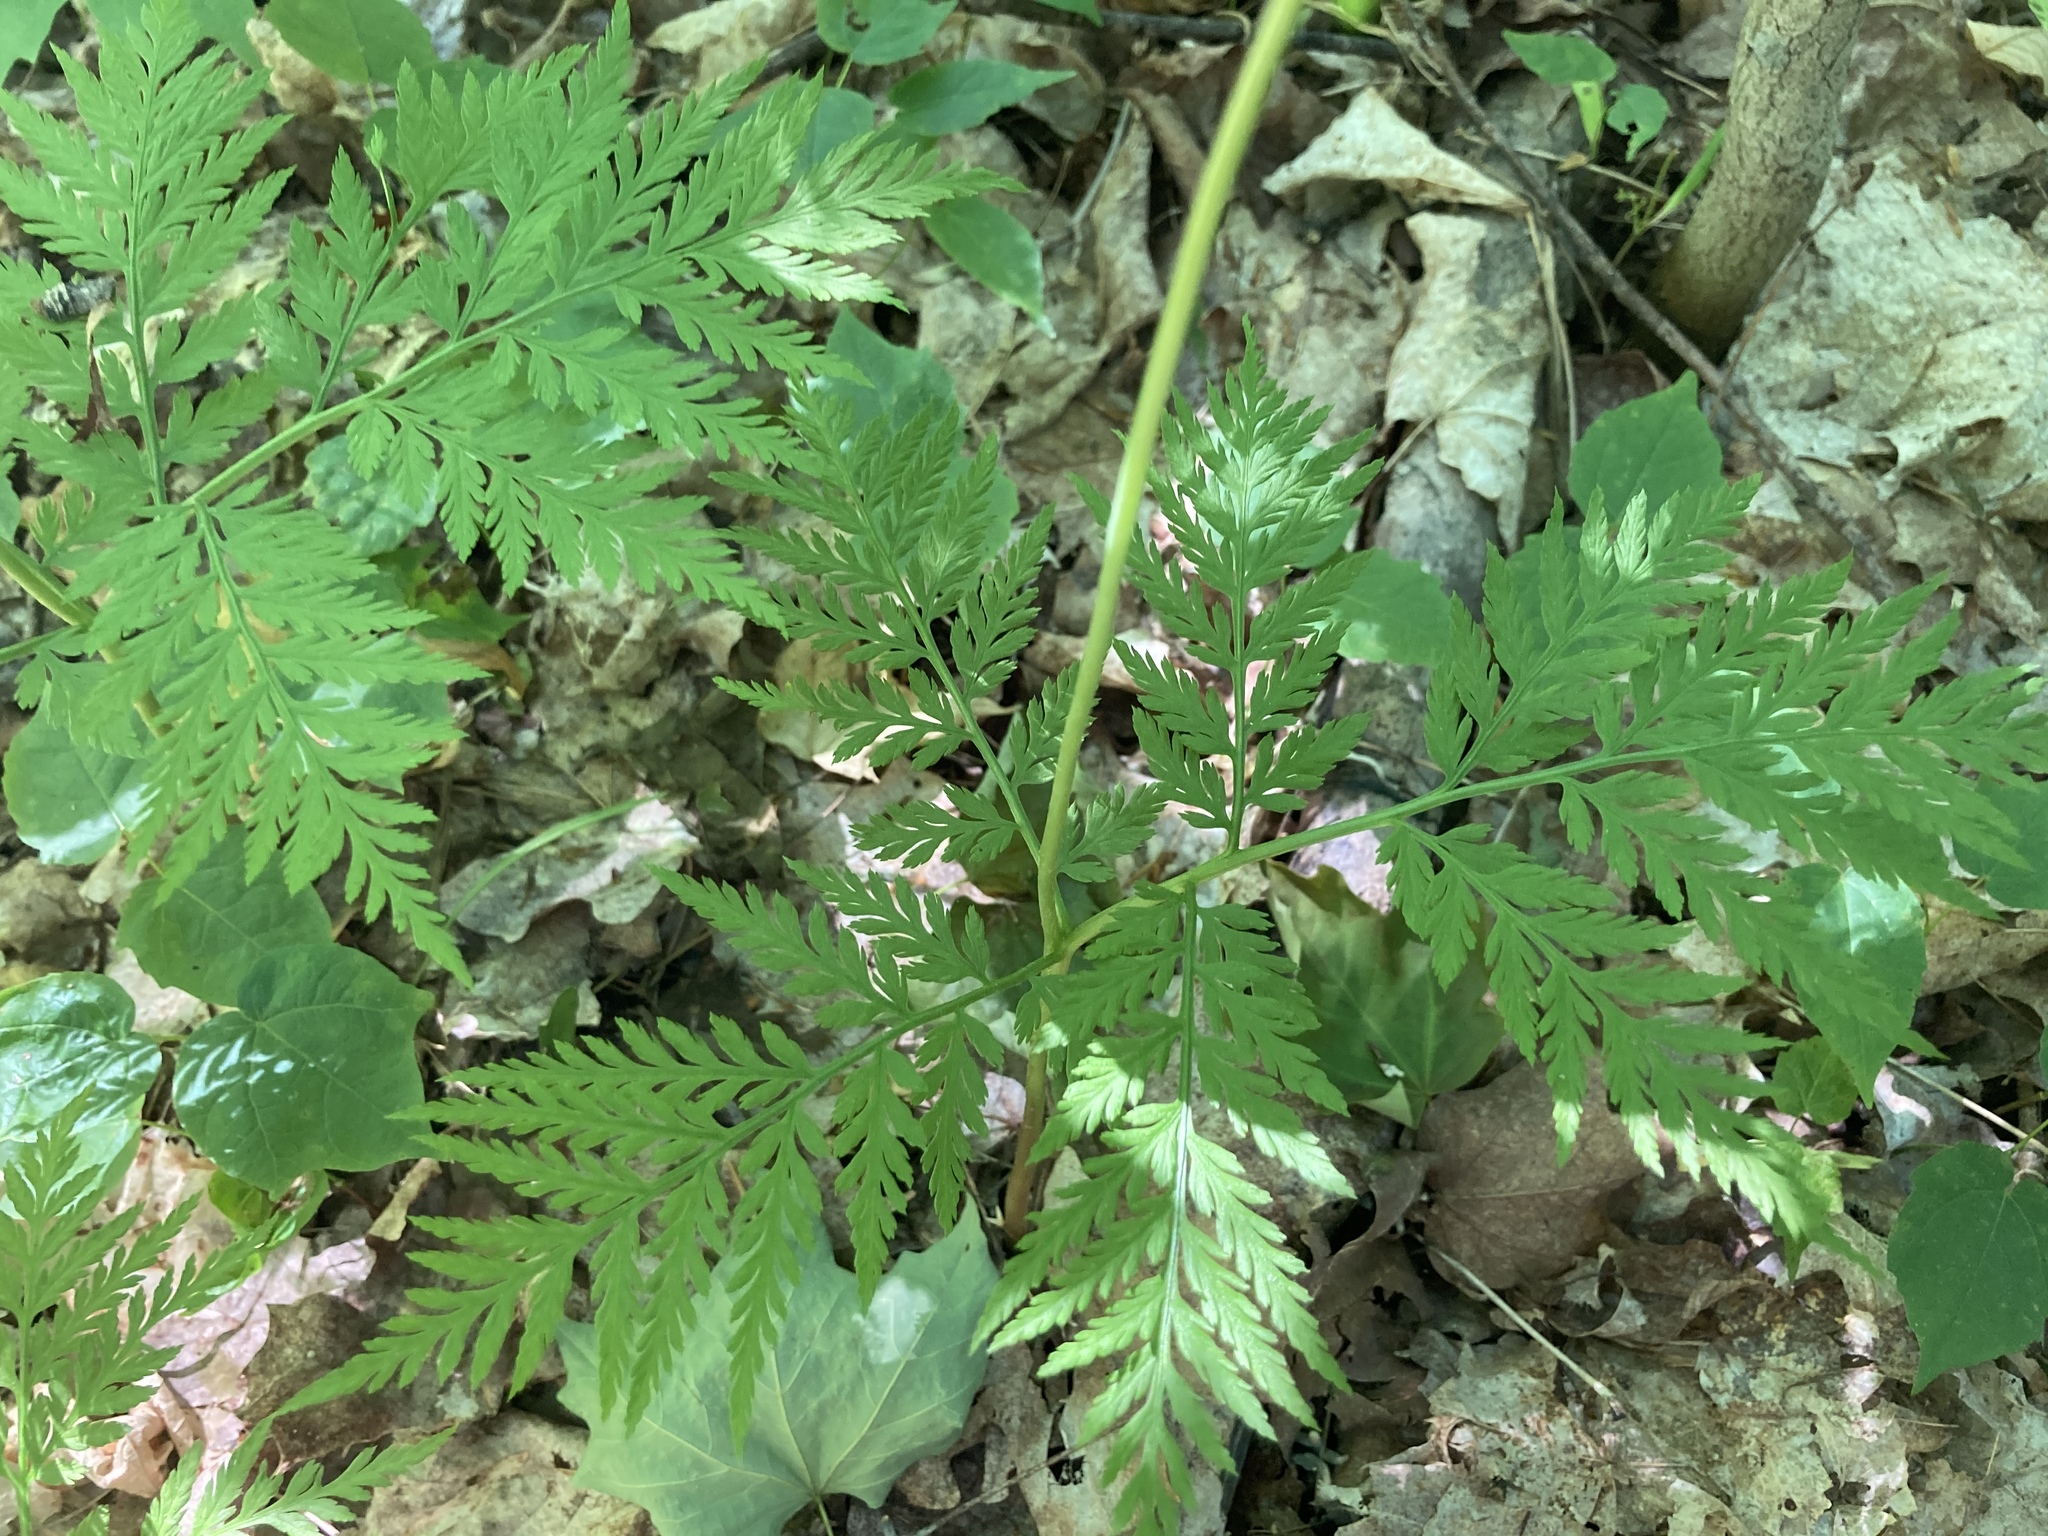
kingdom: Plantae
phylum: Tracheophyta
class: Polypodiopsida
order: Ophioglossales
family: Ophioglossaceae
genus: Botrypus
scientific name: Botrypus virginianus
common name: Common grapefern
